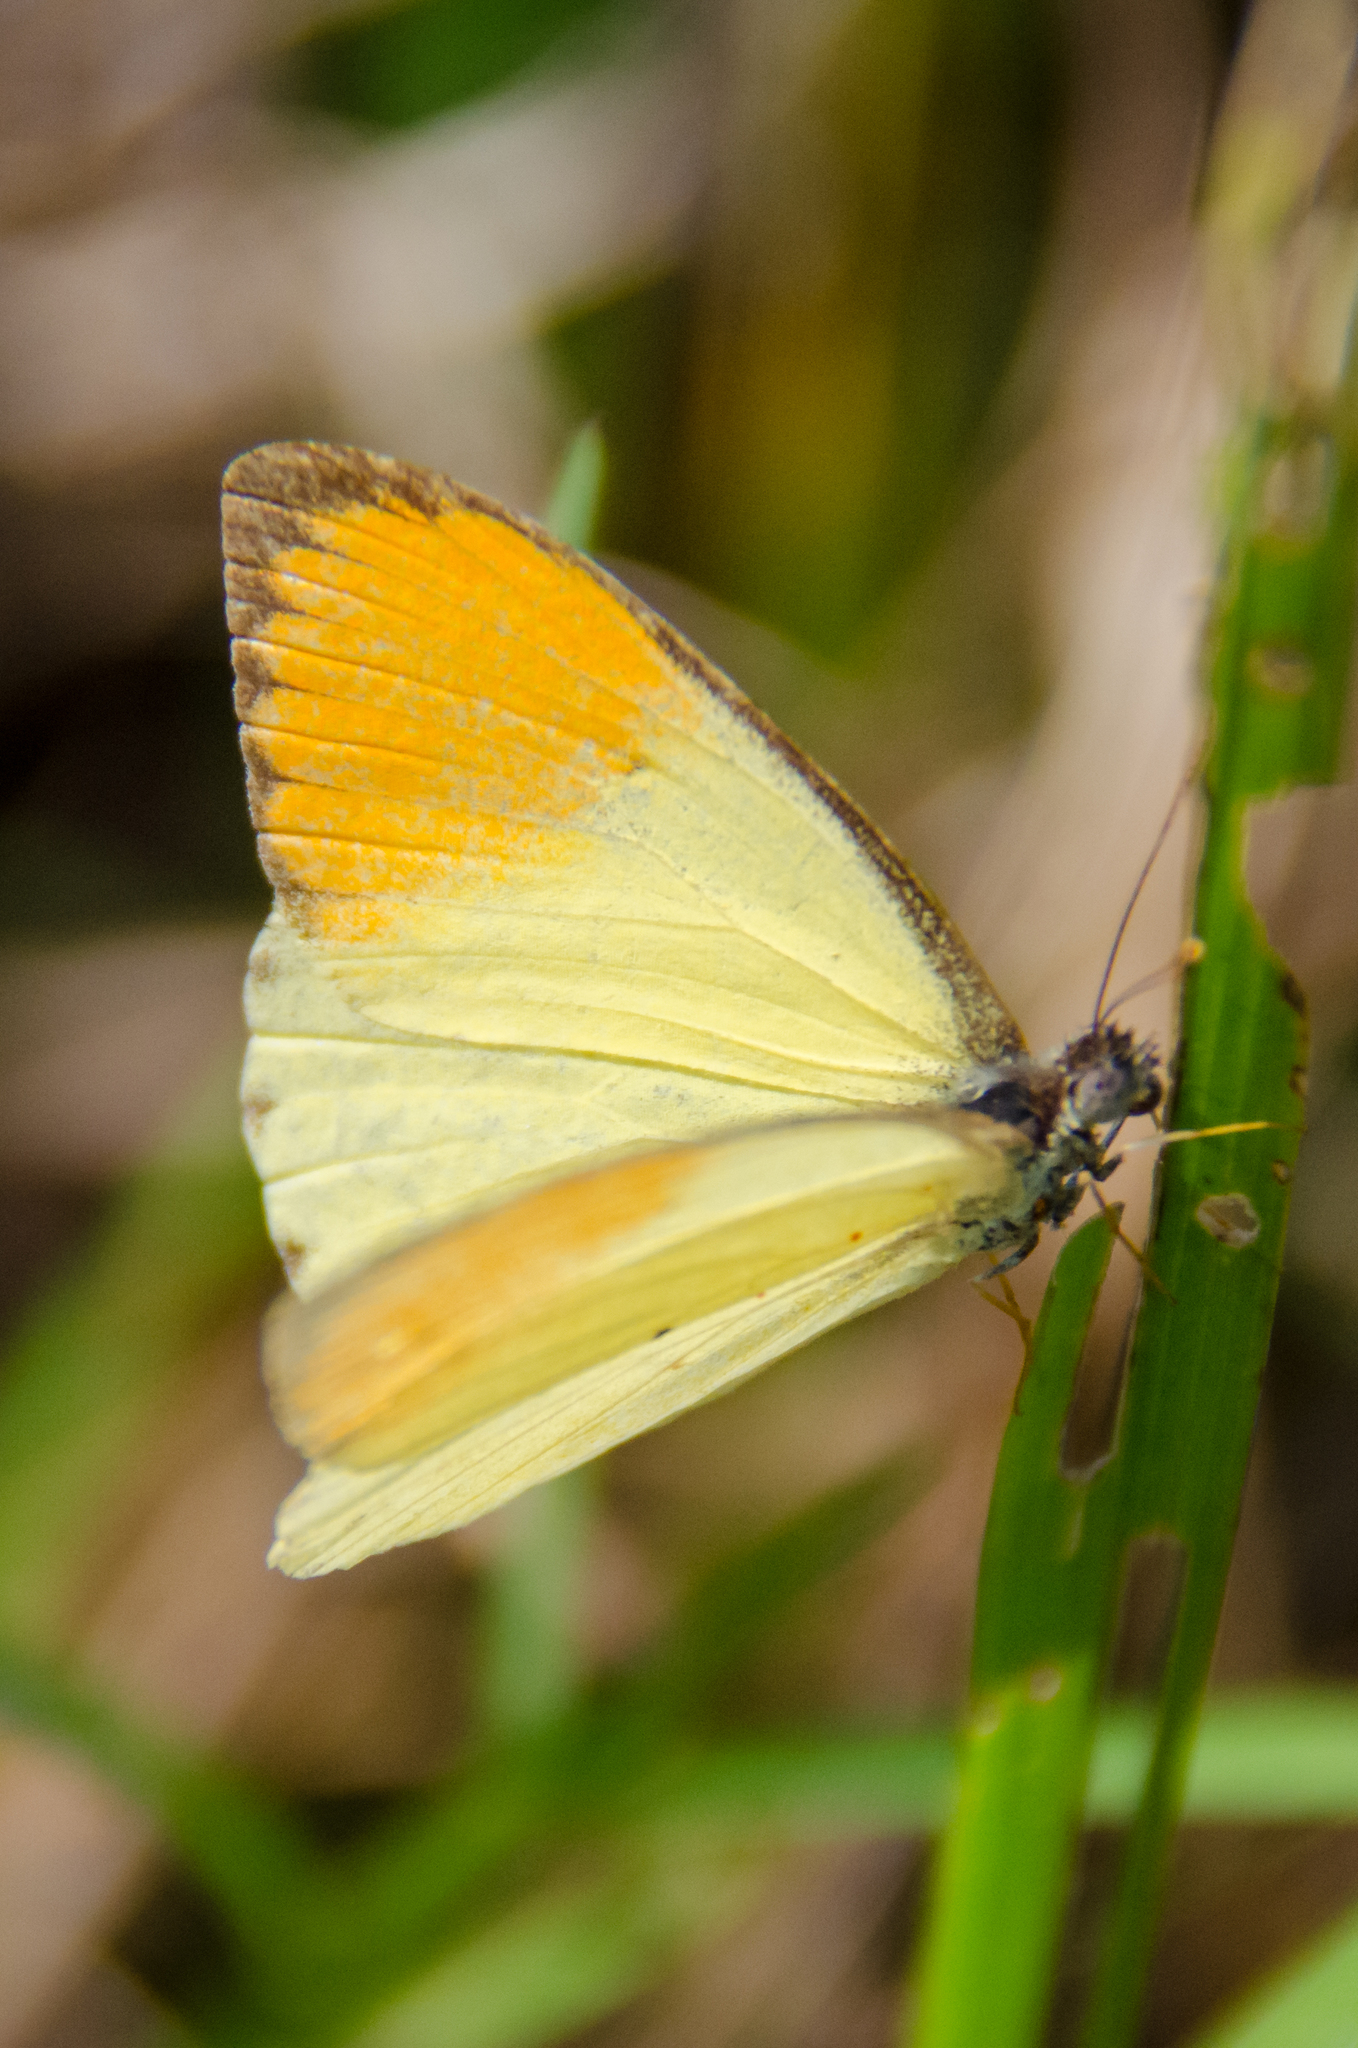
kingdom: Animalia
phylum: Arthropoda
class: Insecta
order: Lepidoptera
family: Pieridae
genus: Colotis
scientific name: Colotis auxo
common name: Sulphur orange tip
